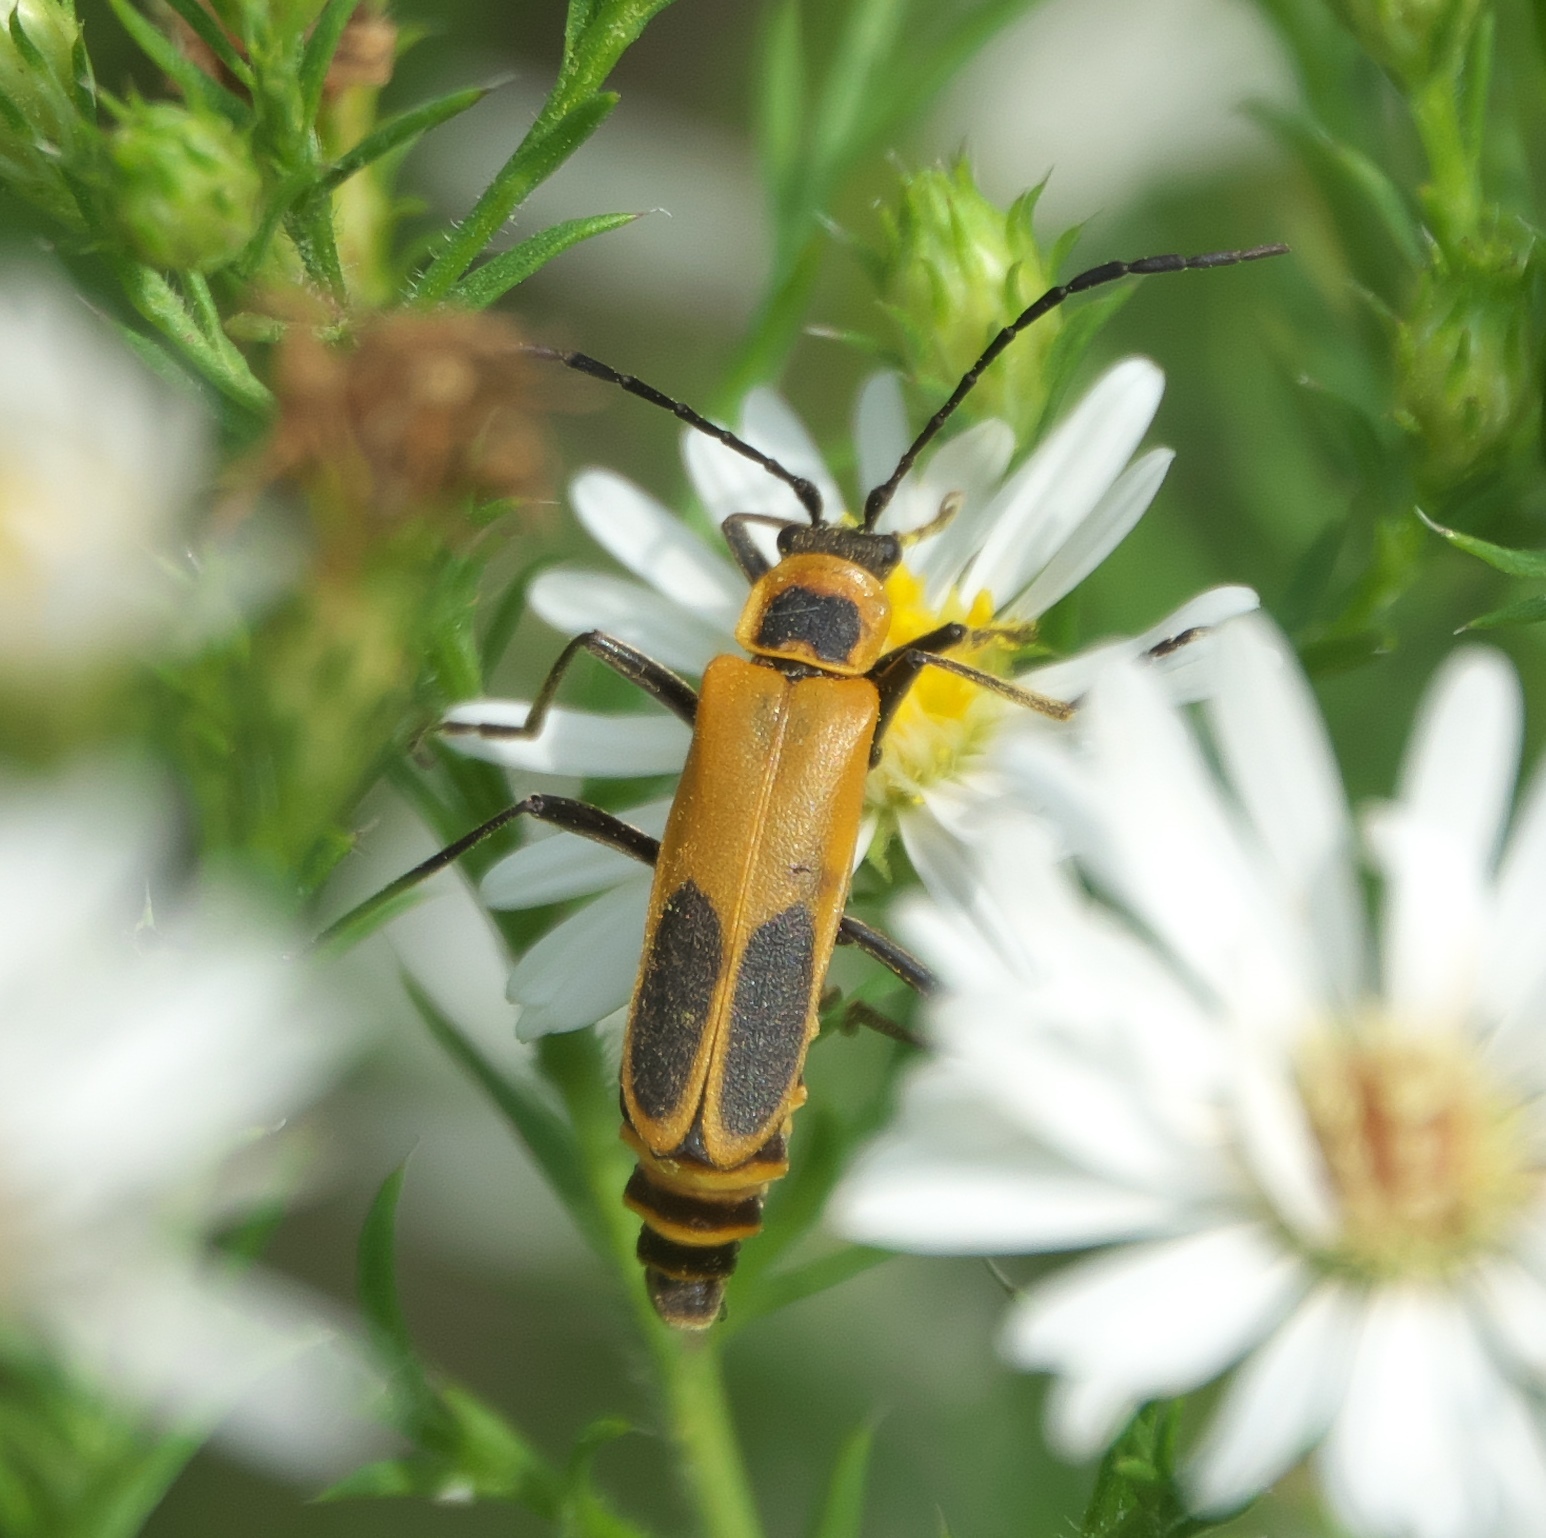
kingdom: Animalia
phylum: Arthropoda
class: Insecta
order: Coleoptera
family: Cantharidae
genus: Chauliognathus
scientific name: Chauliognathus pensylvanicus
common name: Goldenrod soldier beetle
